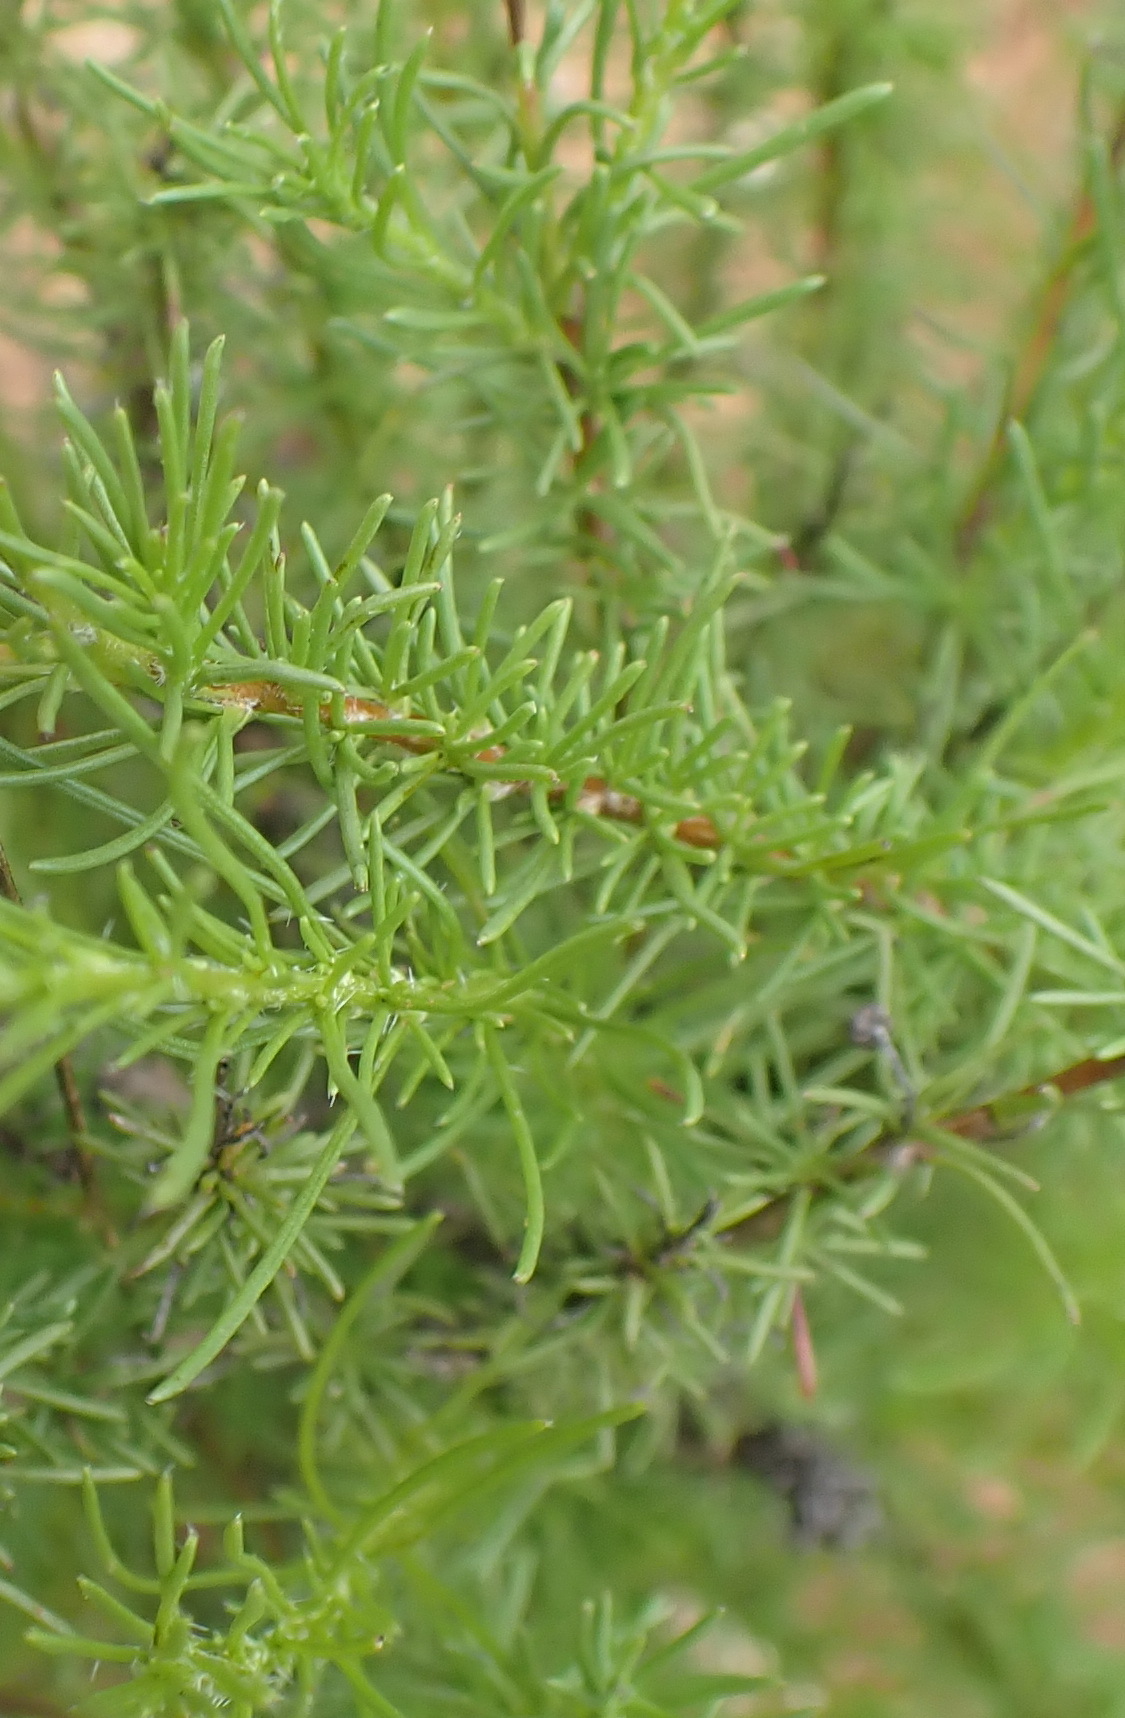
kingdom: Plantae
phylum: Tracheophyta
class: Magnoliopsida
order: Asterales
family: Asteraceae
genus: Felicia
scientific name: Felicia muricata
